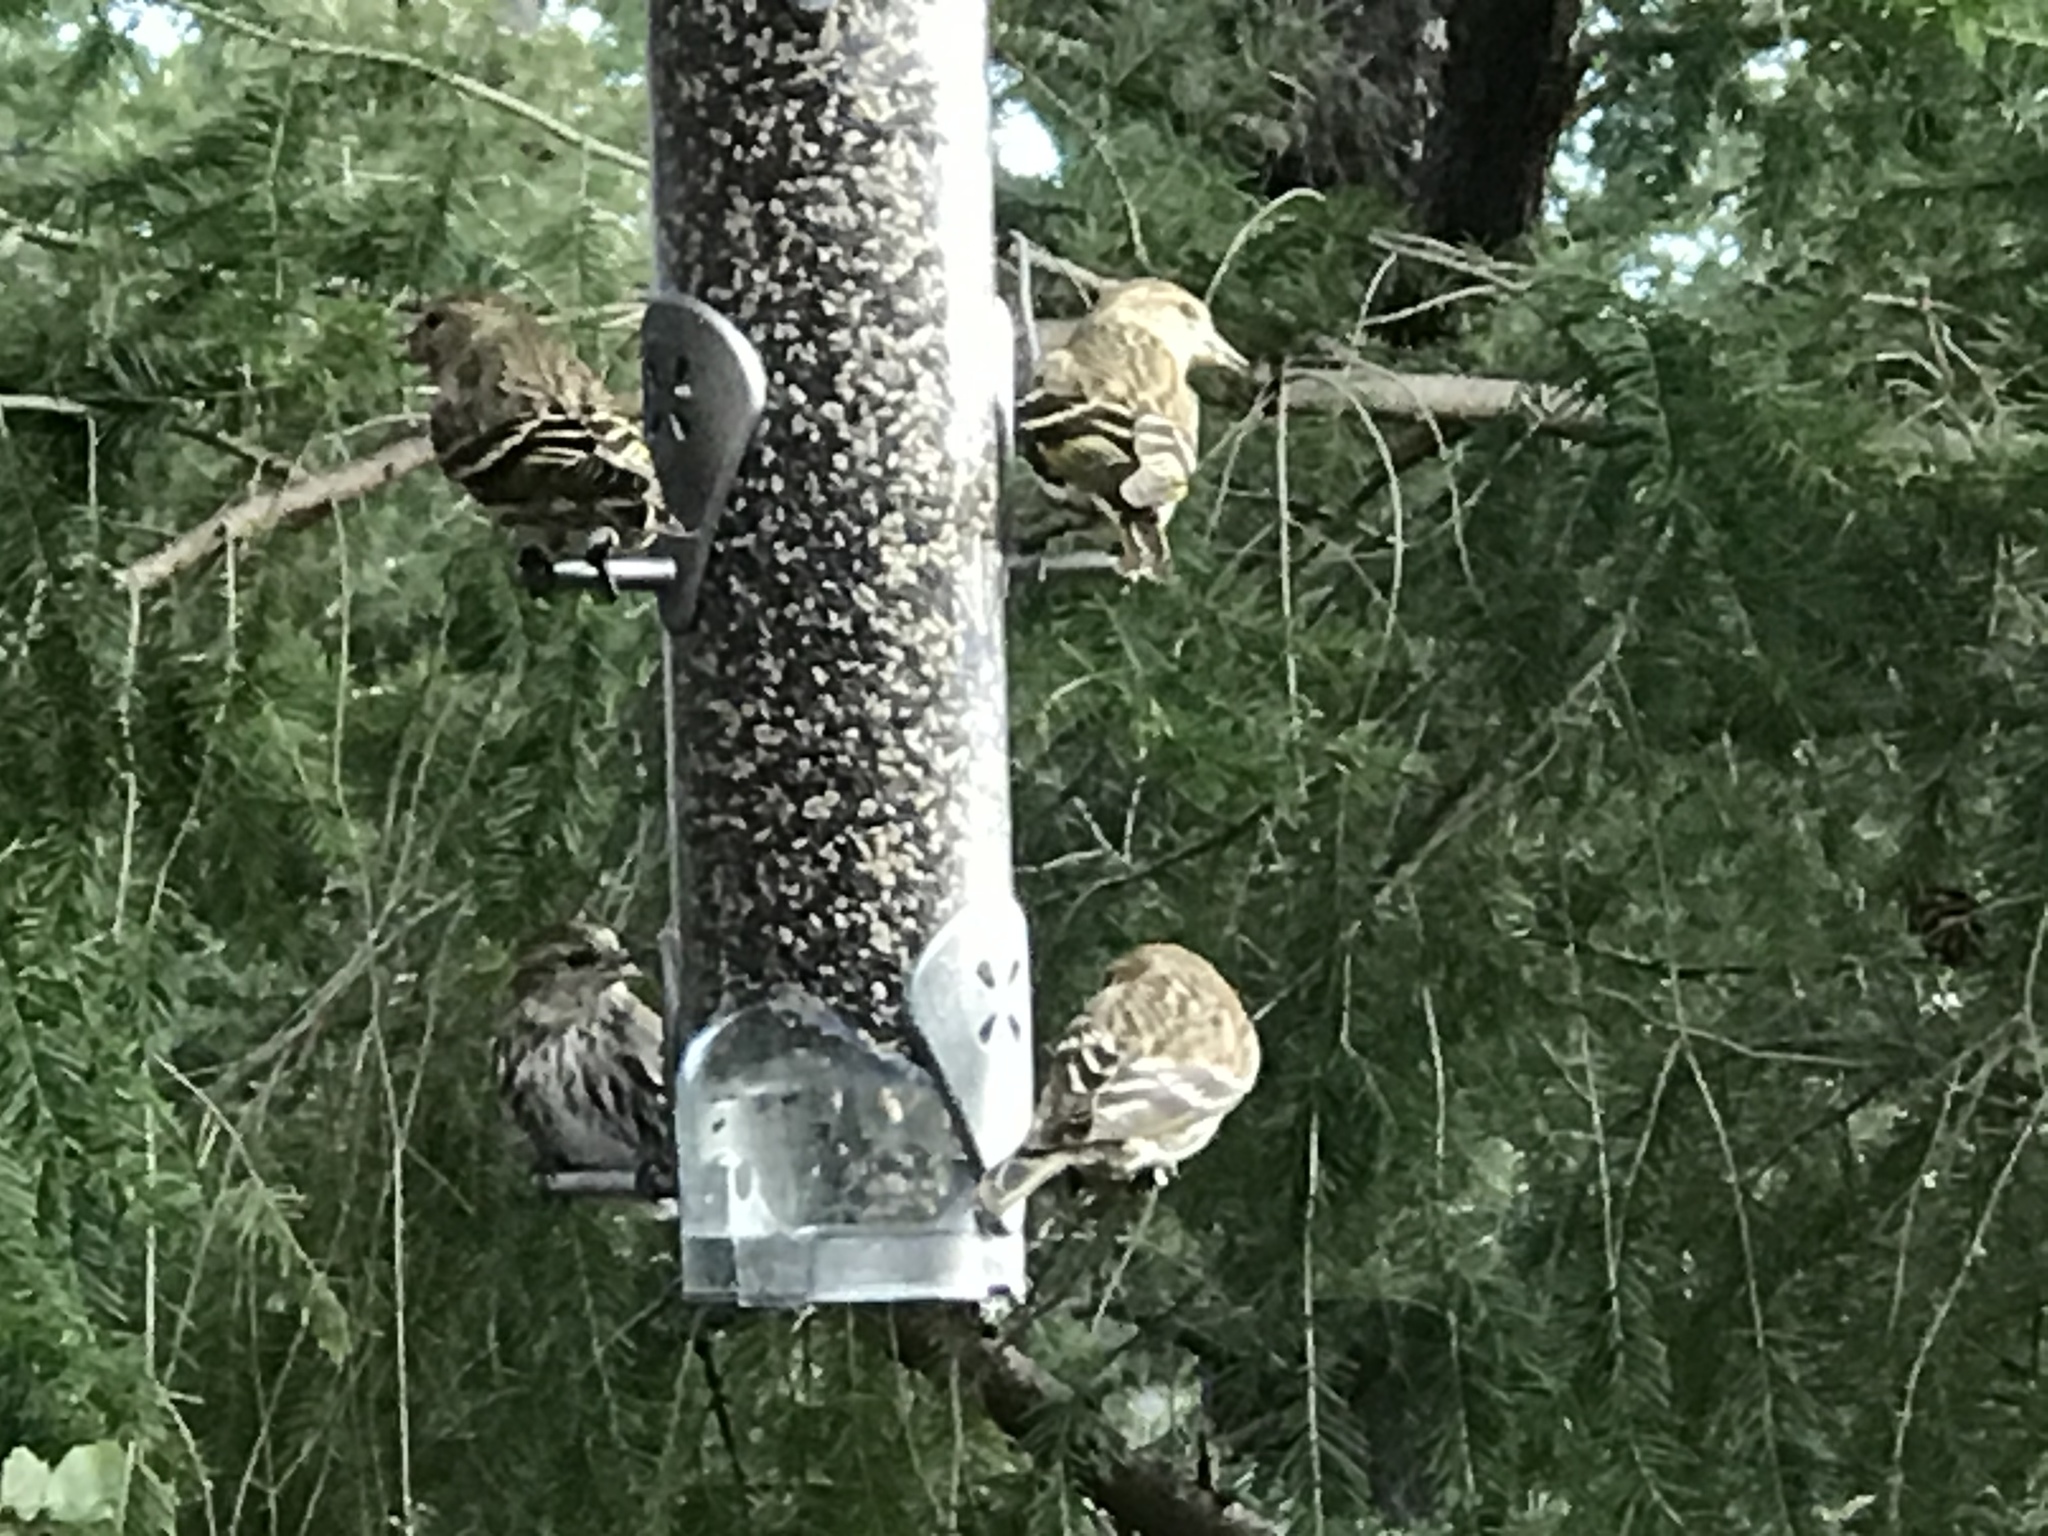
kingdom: Animalia
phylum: Chordata
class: Aves
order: Passeriformes
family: Fringillidae
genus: Spinus
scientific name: Spinus pinus
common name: Pine siskin
